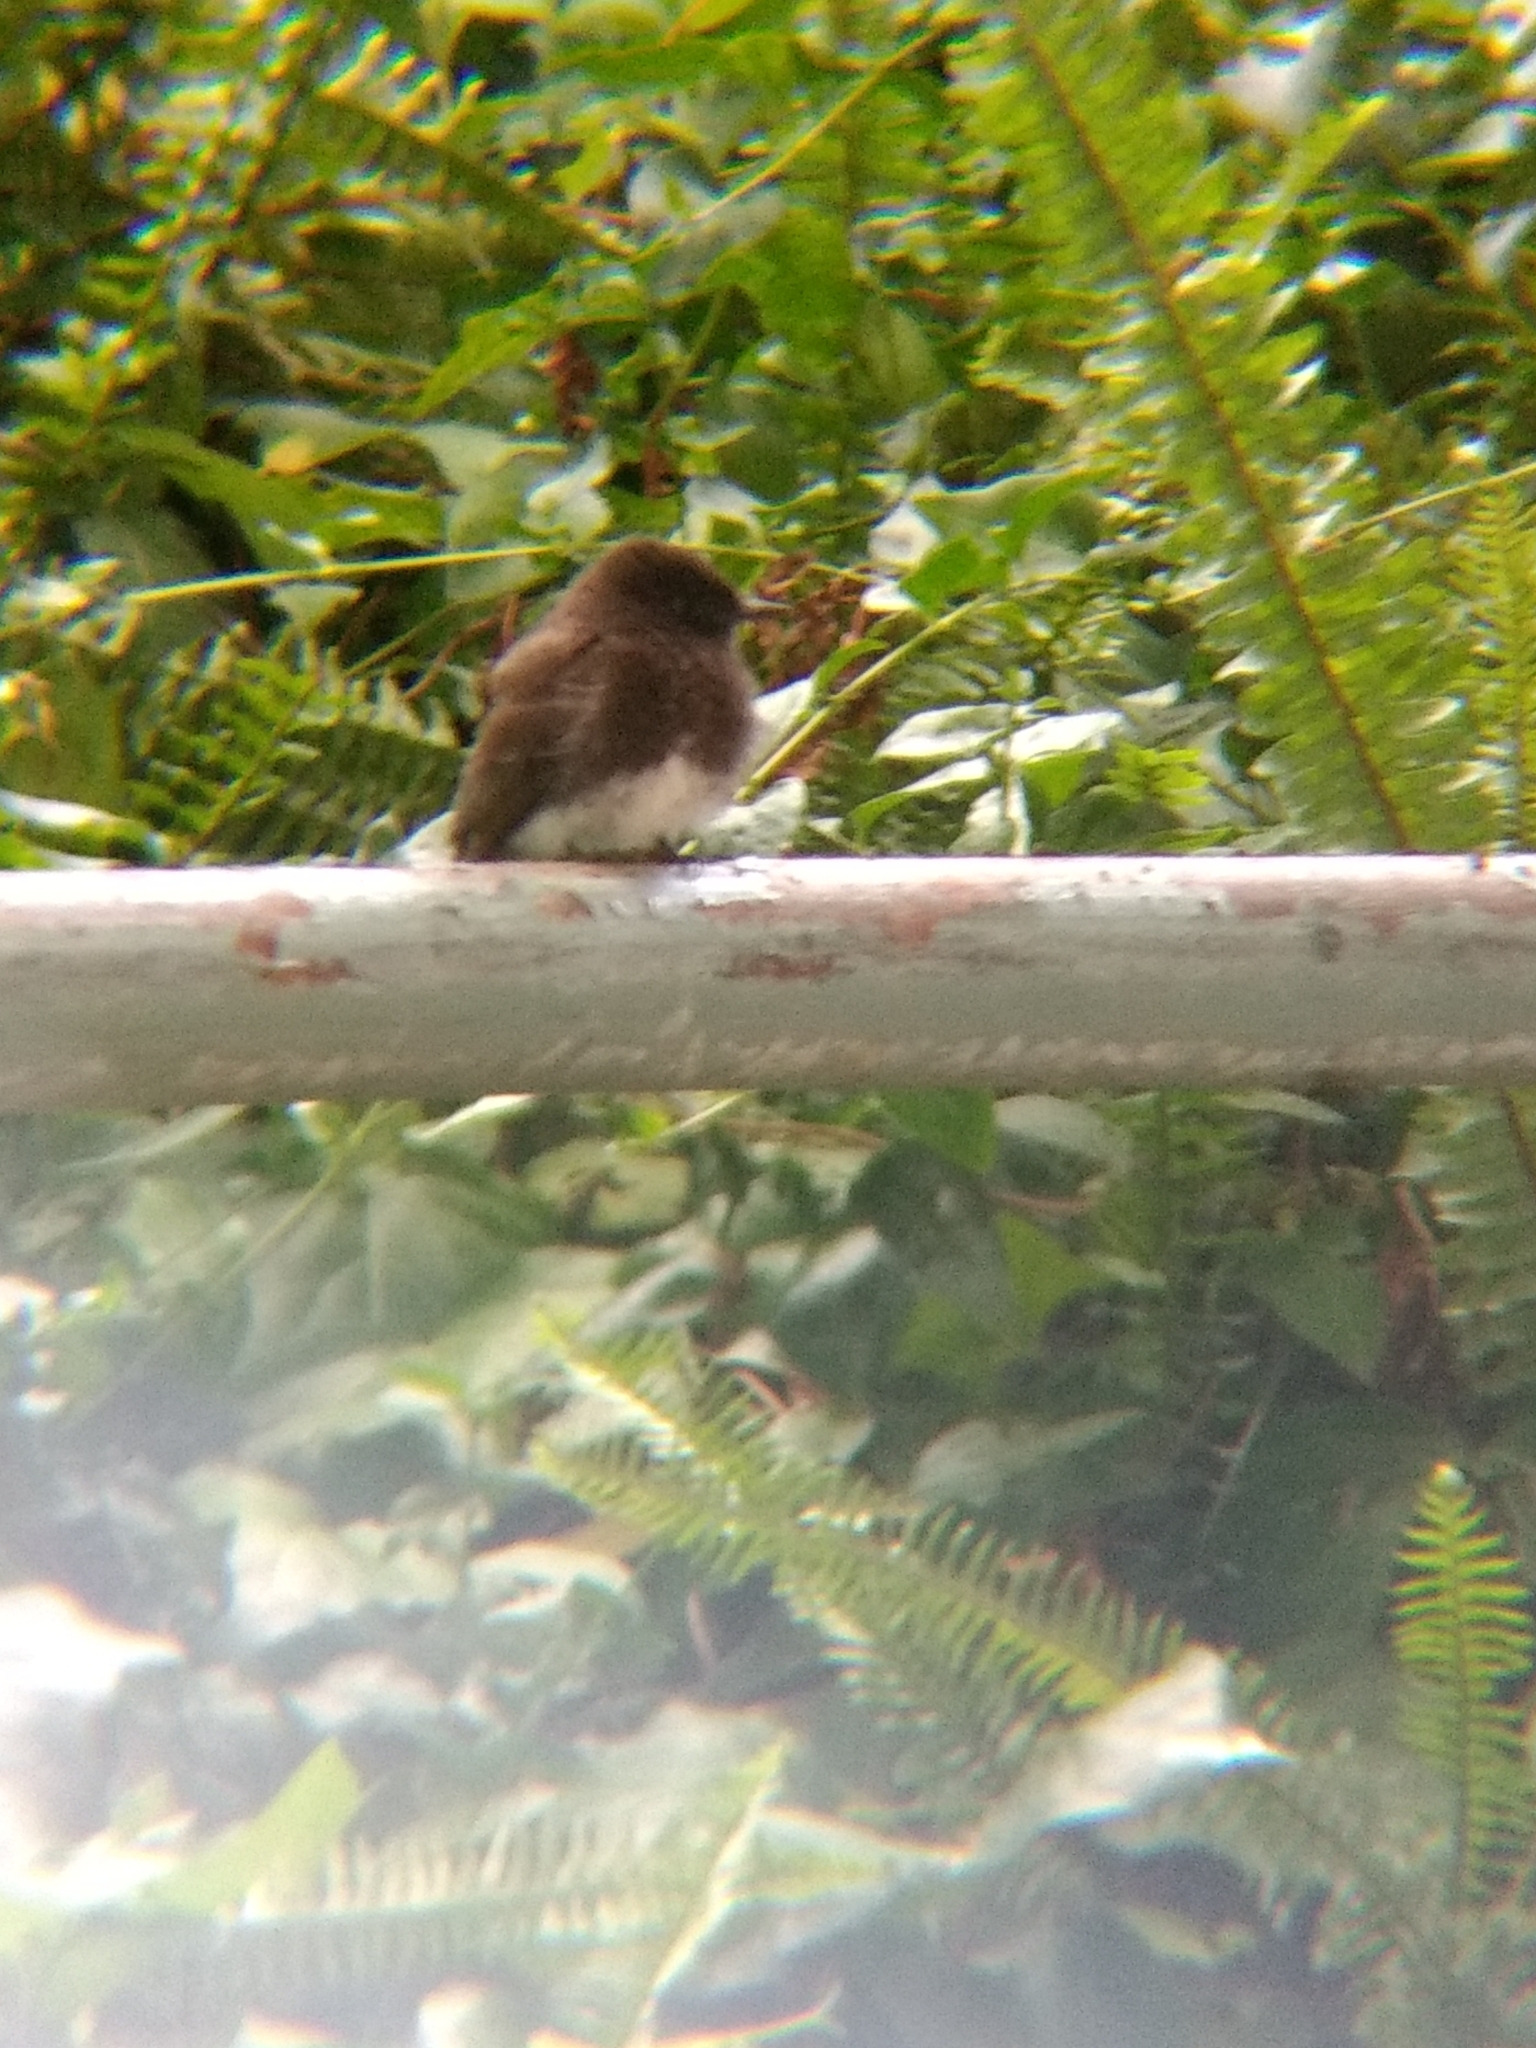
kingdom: Animalia
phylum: Chordata
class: Aves
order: Passeriformes
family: Tyrannidae
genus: Sayornis
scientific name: Sayornis nigricans
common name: Black phoebe
